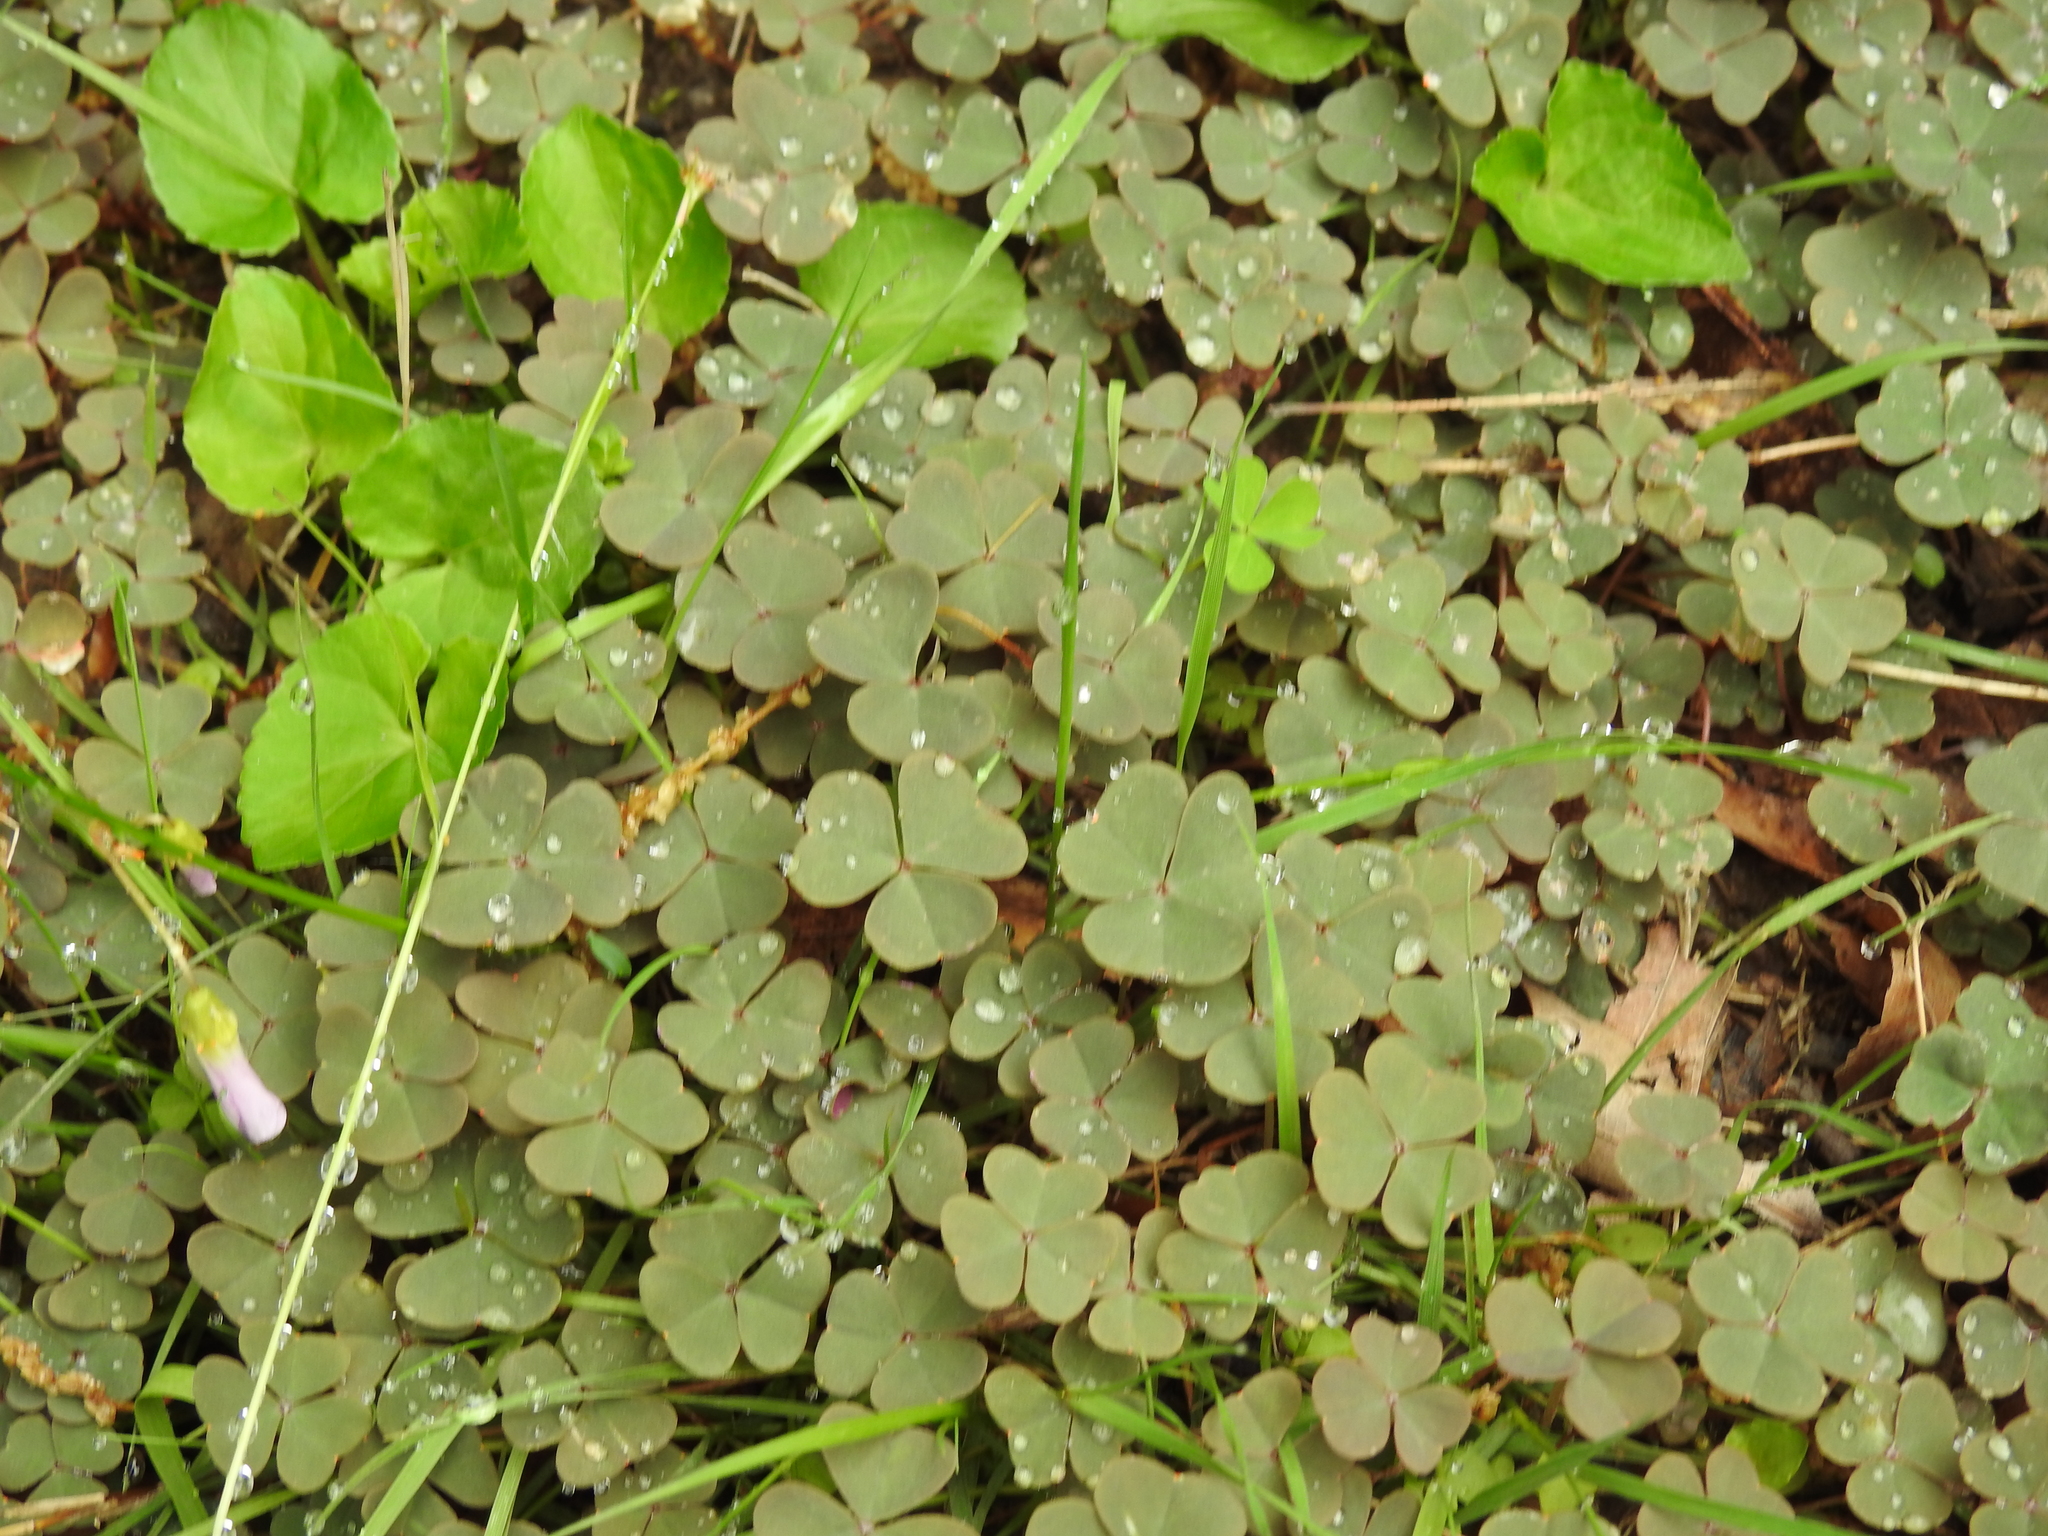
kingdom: Plantae
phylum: Tracheophyta
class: Magnoliopsida
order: Oxalidales
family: Oxalidaceae
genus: Oxalis
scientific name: Oxalis violacea
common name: Violet wood-sorrel
